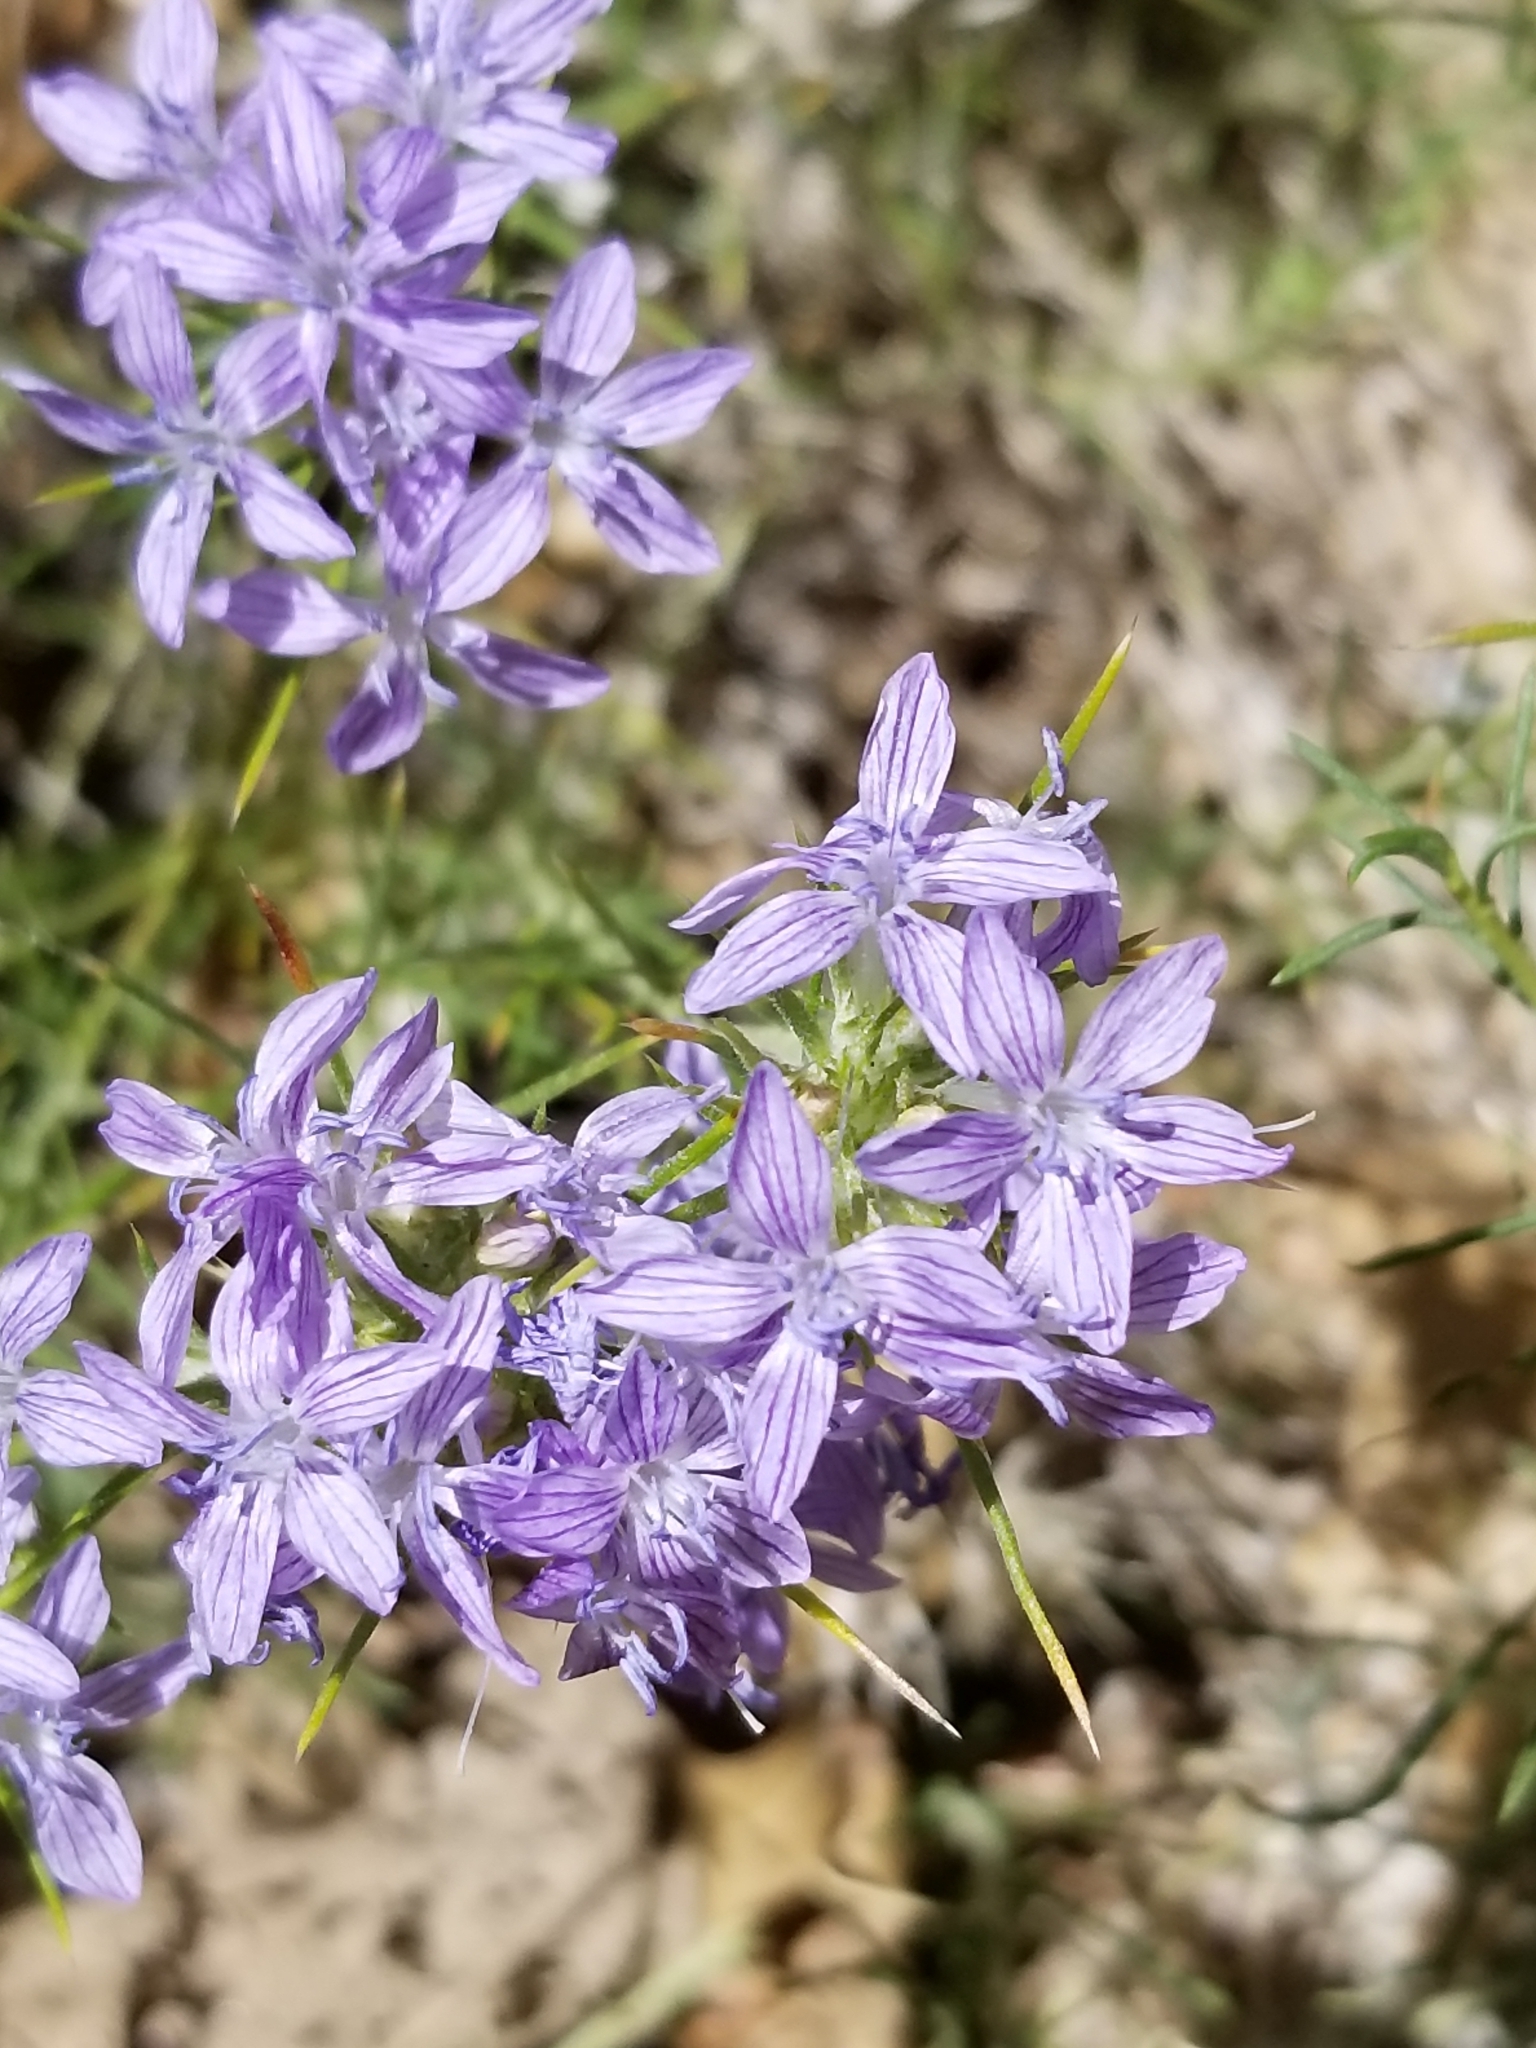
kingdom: Plantae
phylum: Tracheophyta
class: Magnoliopsida
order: Ericales
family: Polemoniaceae
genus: Eriastrum
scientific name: Eriastrum densifolium
